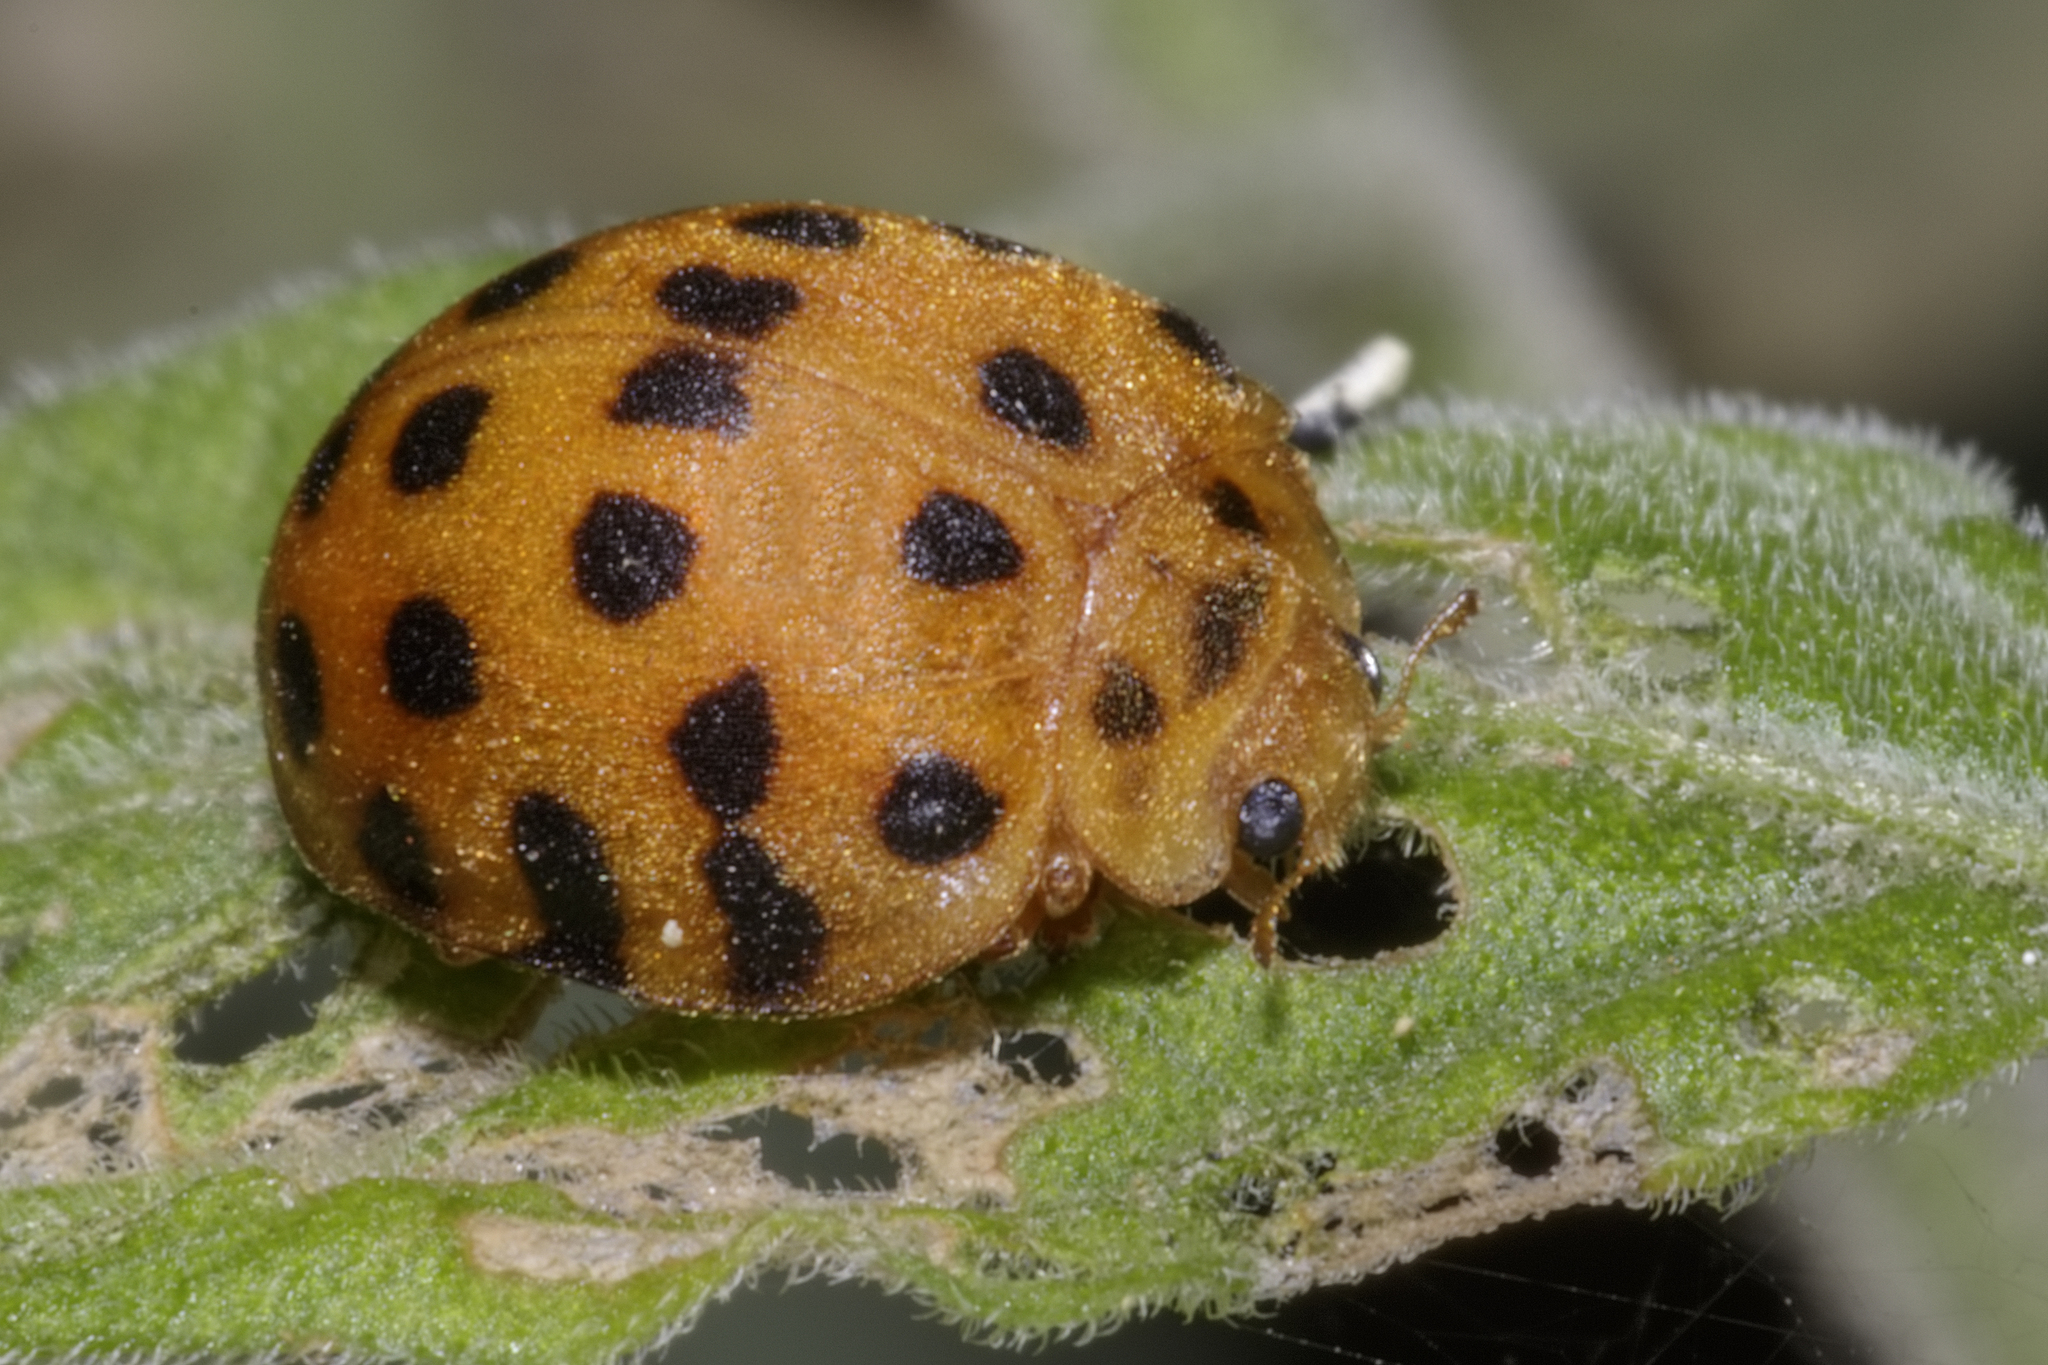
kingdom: Animalia
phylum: Arthropoda
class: Insecta
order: Coleoptera
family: Coccinellidae
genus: Henosepilachna
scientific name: Henosepilachna vigintioctopunctata
